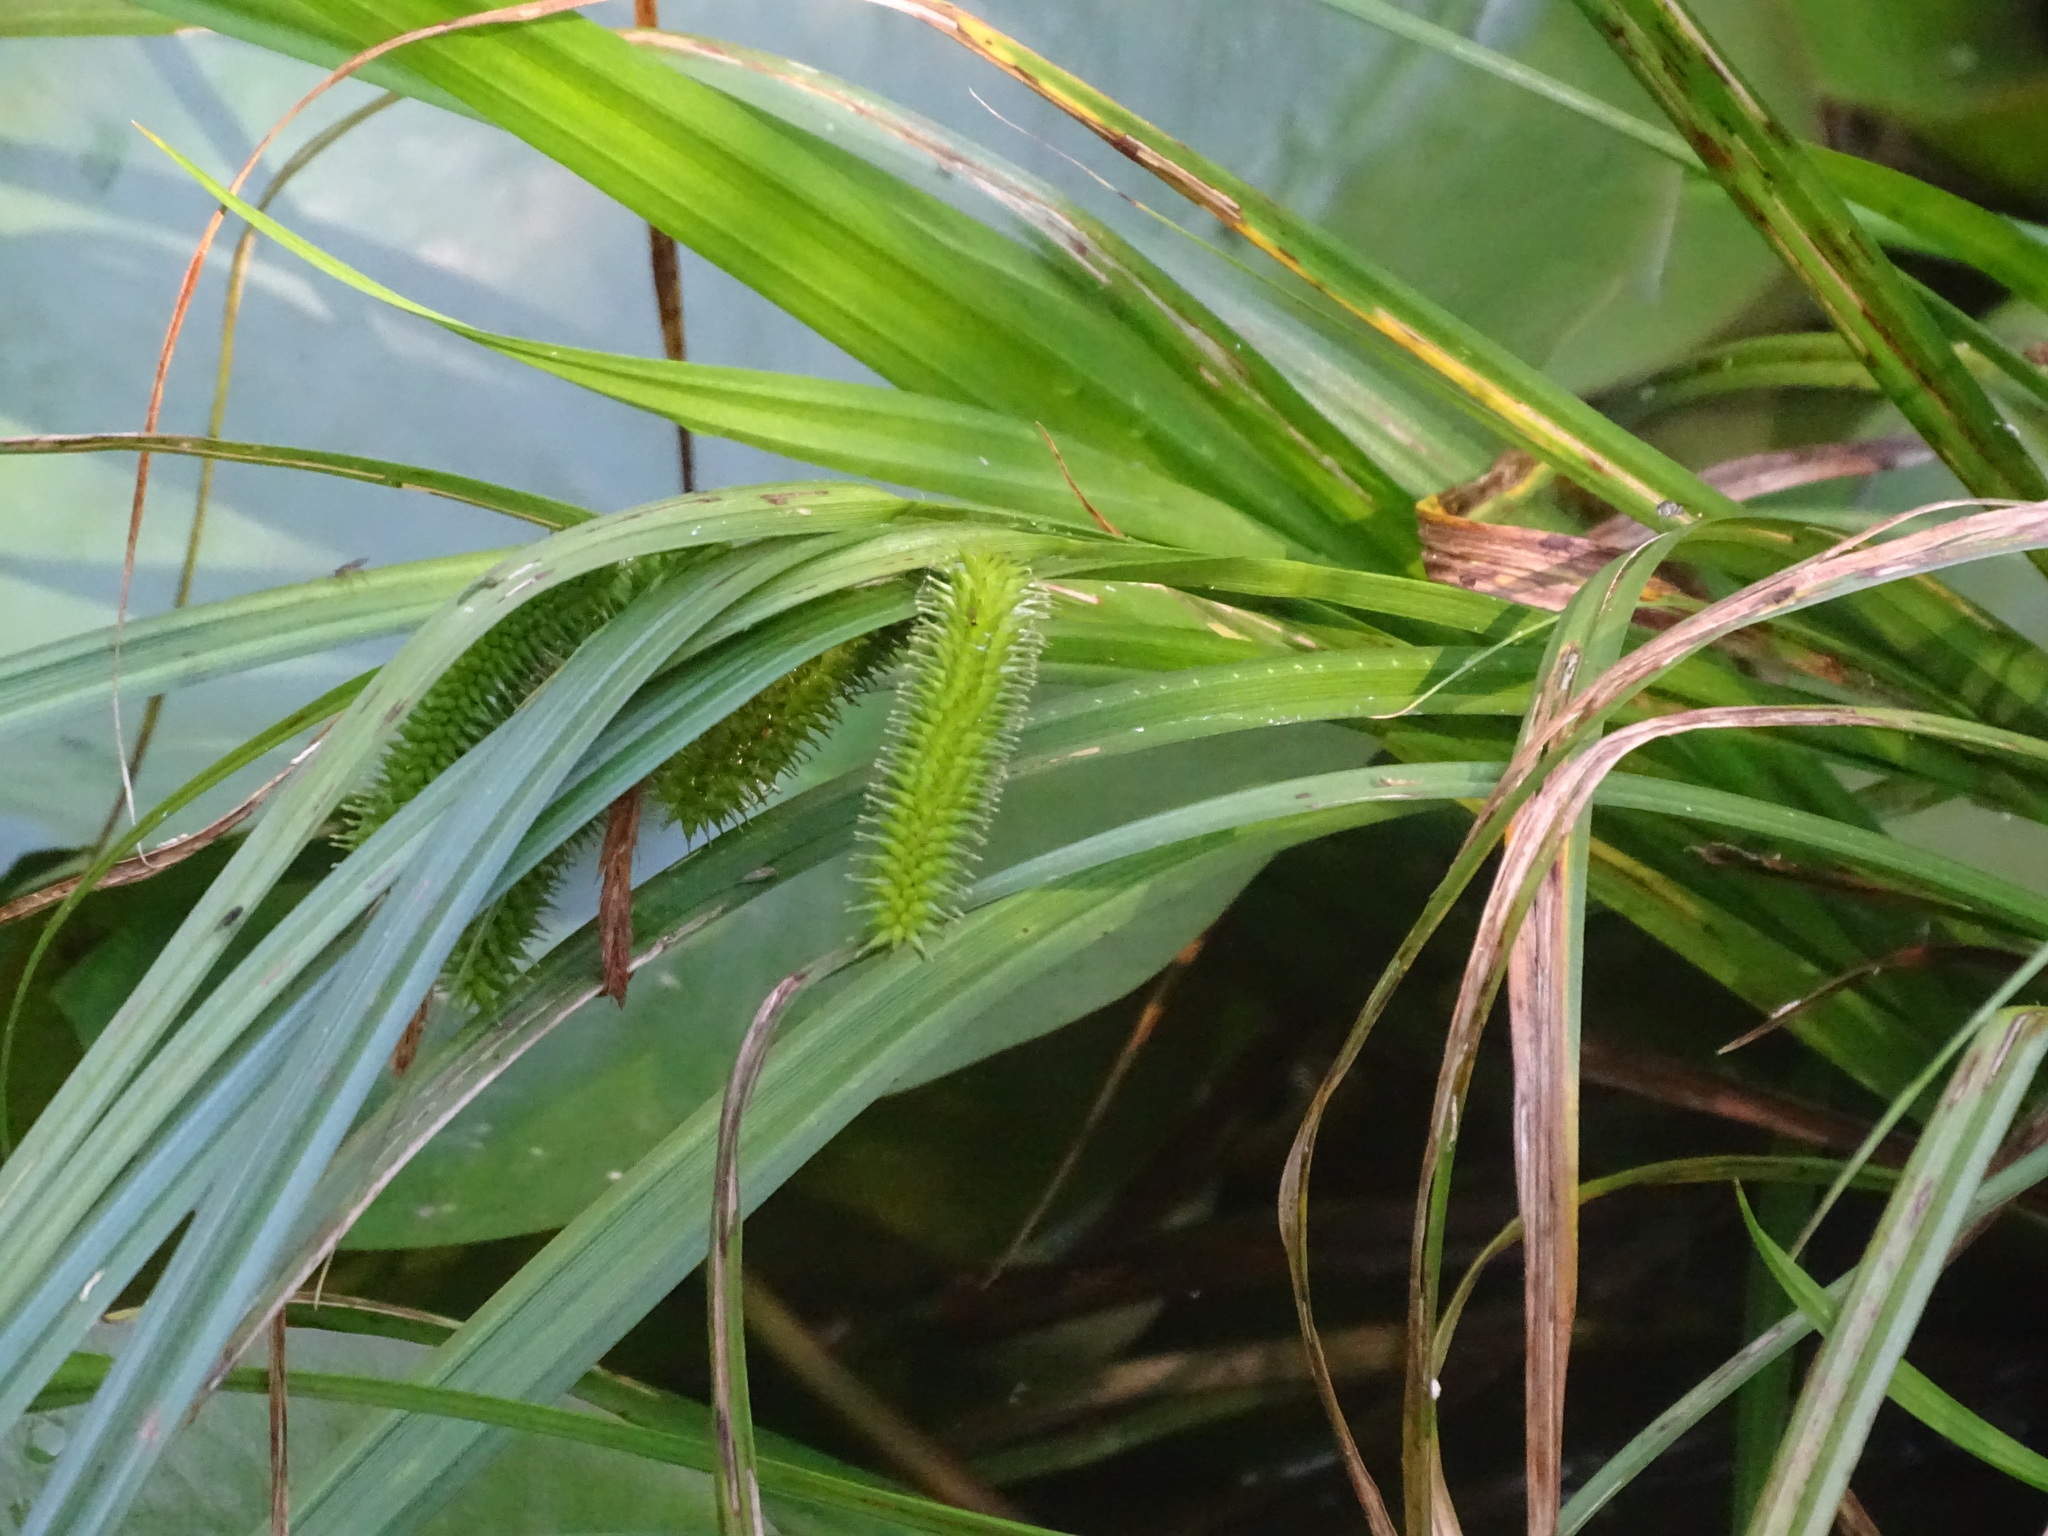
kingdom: Plantae
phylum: Tracheophyta
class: Liliopsida
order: Poales
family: Cyperaceae
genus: Carex
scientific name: Carex pseudocyperus
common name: Cyperus sedge
